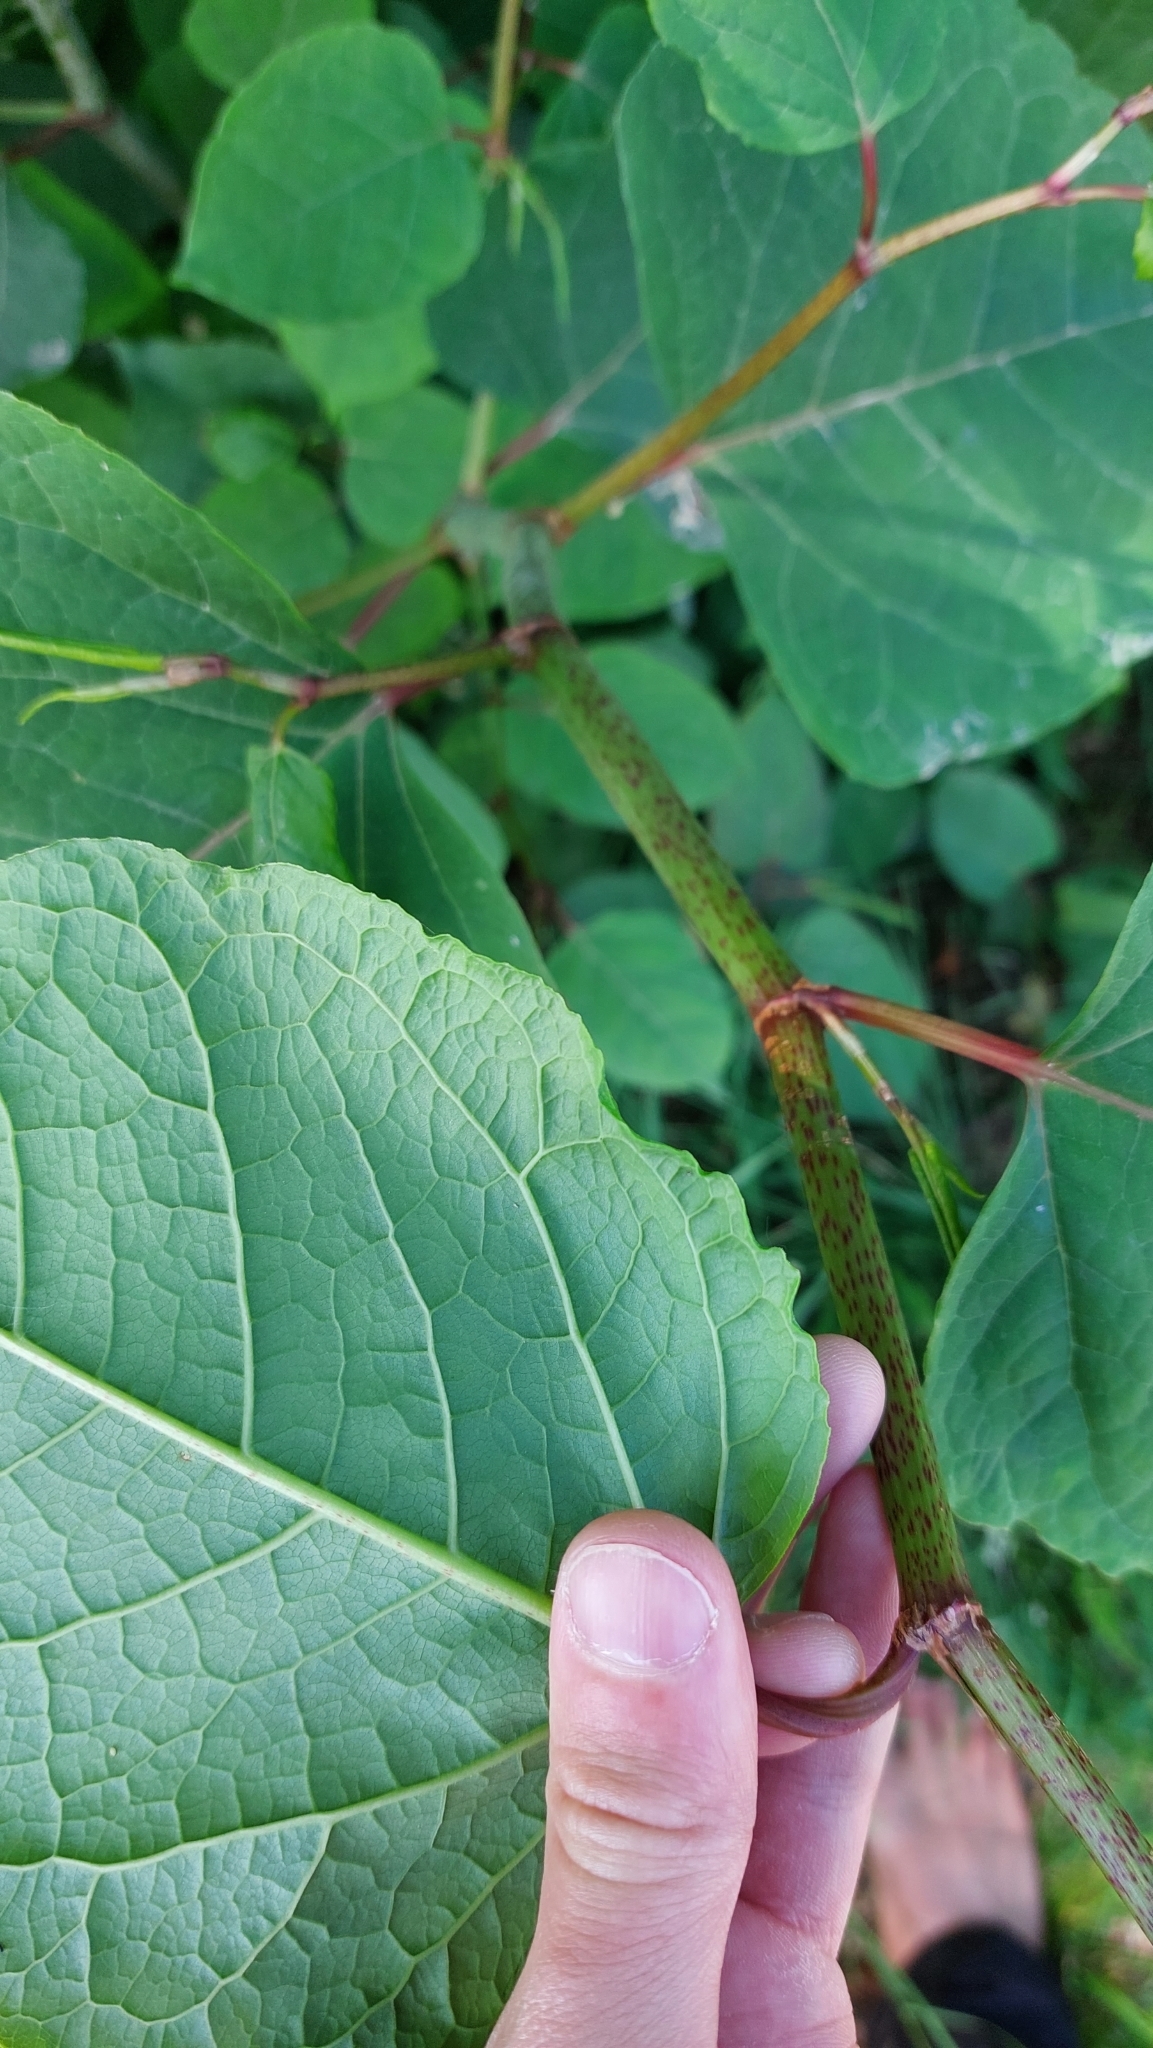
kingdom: Plantae
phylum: Tracheophyta
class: Magnoliopsida
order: Caryophyllales
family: Polygonaceae
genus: Reynoutria
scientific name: Reynoutria japonica
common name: Japanese knotweed
